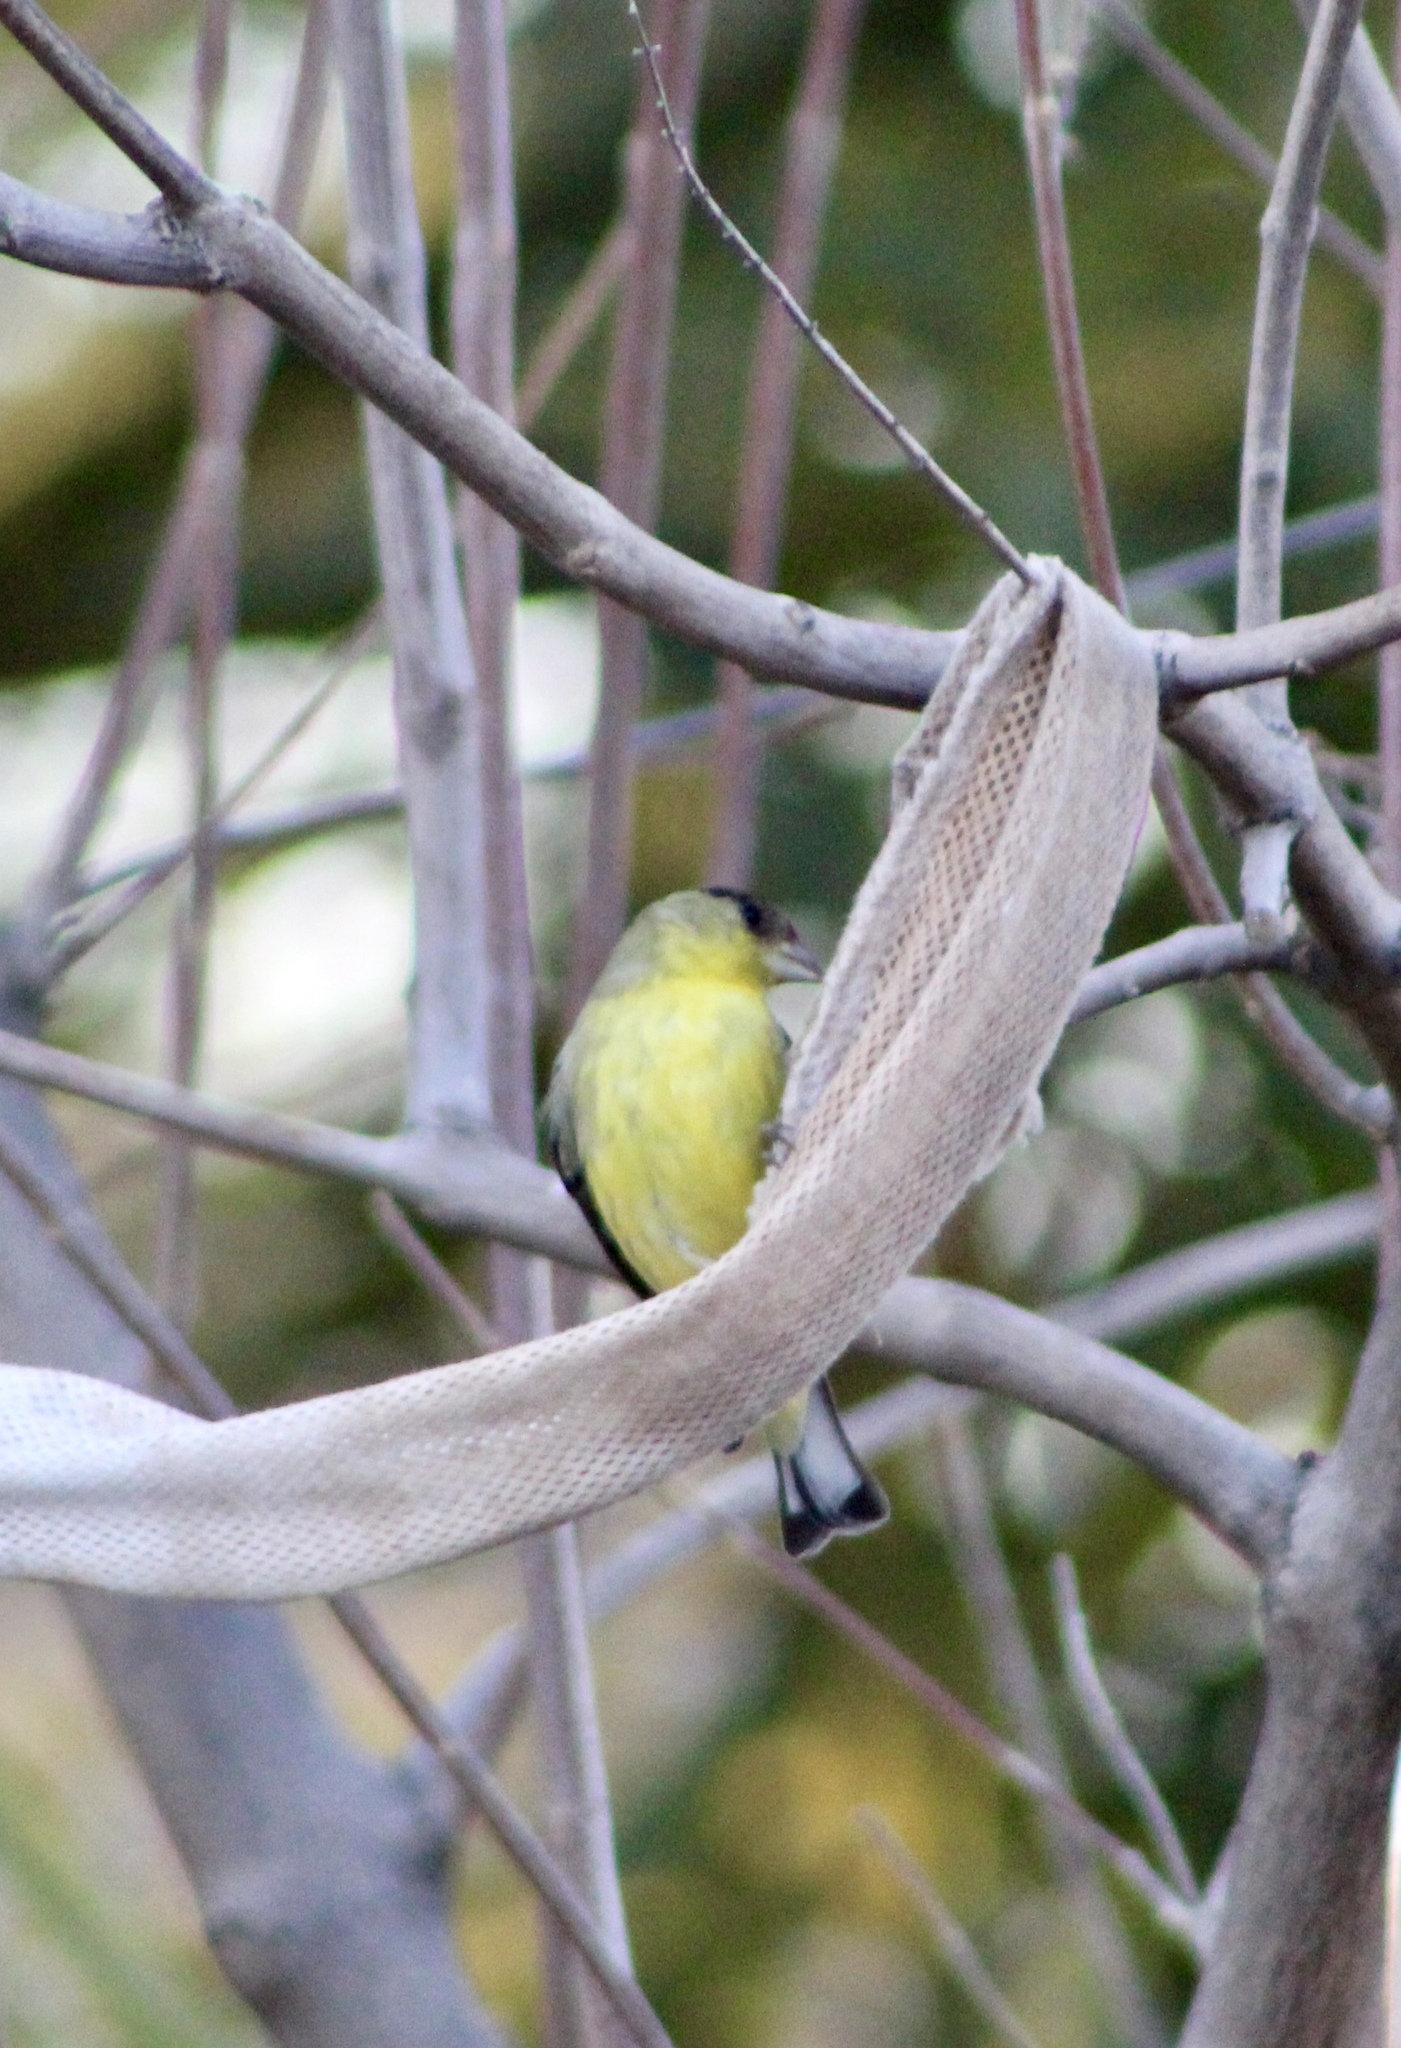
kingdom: Animalia
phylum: Chordata
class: Aves
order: Passeriformes
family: Fringillidae
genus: Spinus
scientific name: Spinus psaltria
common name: Lesser goldfinch
